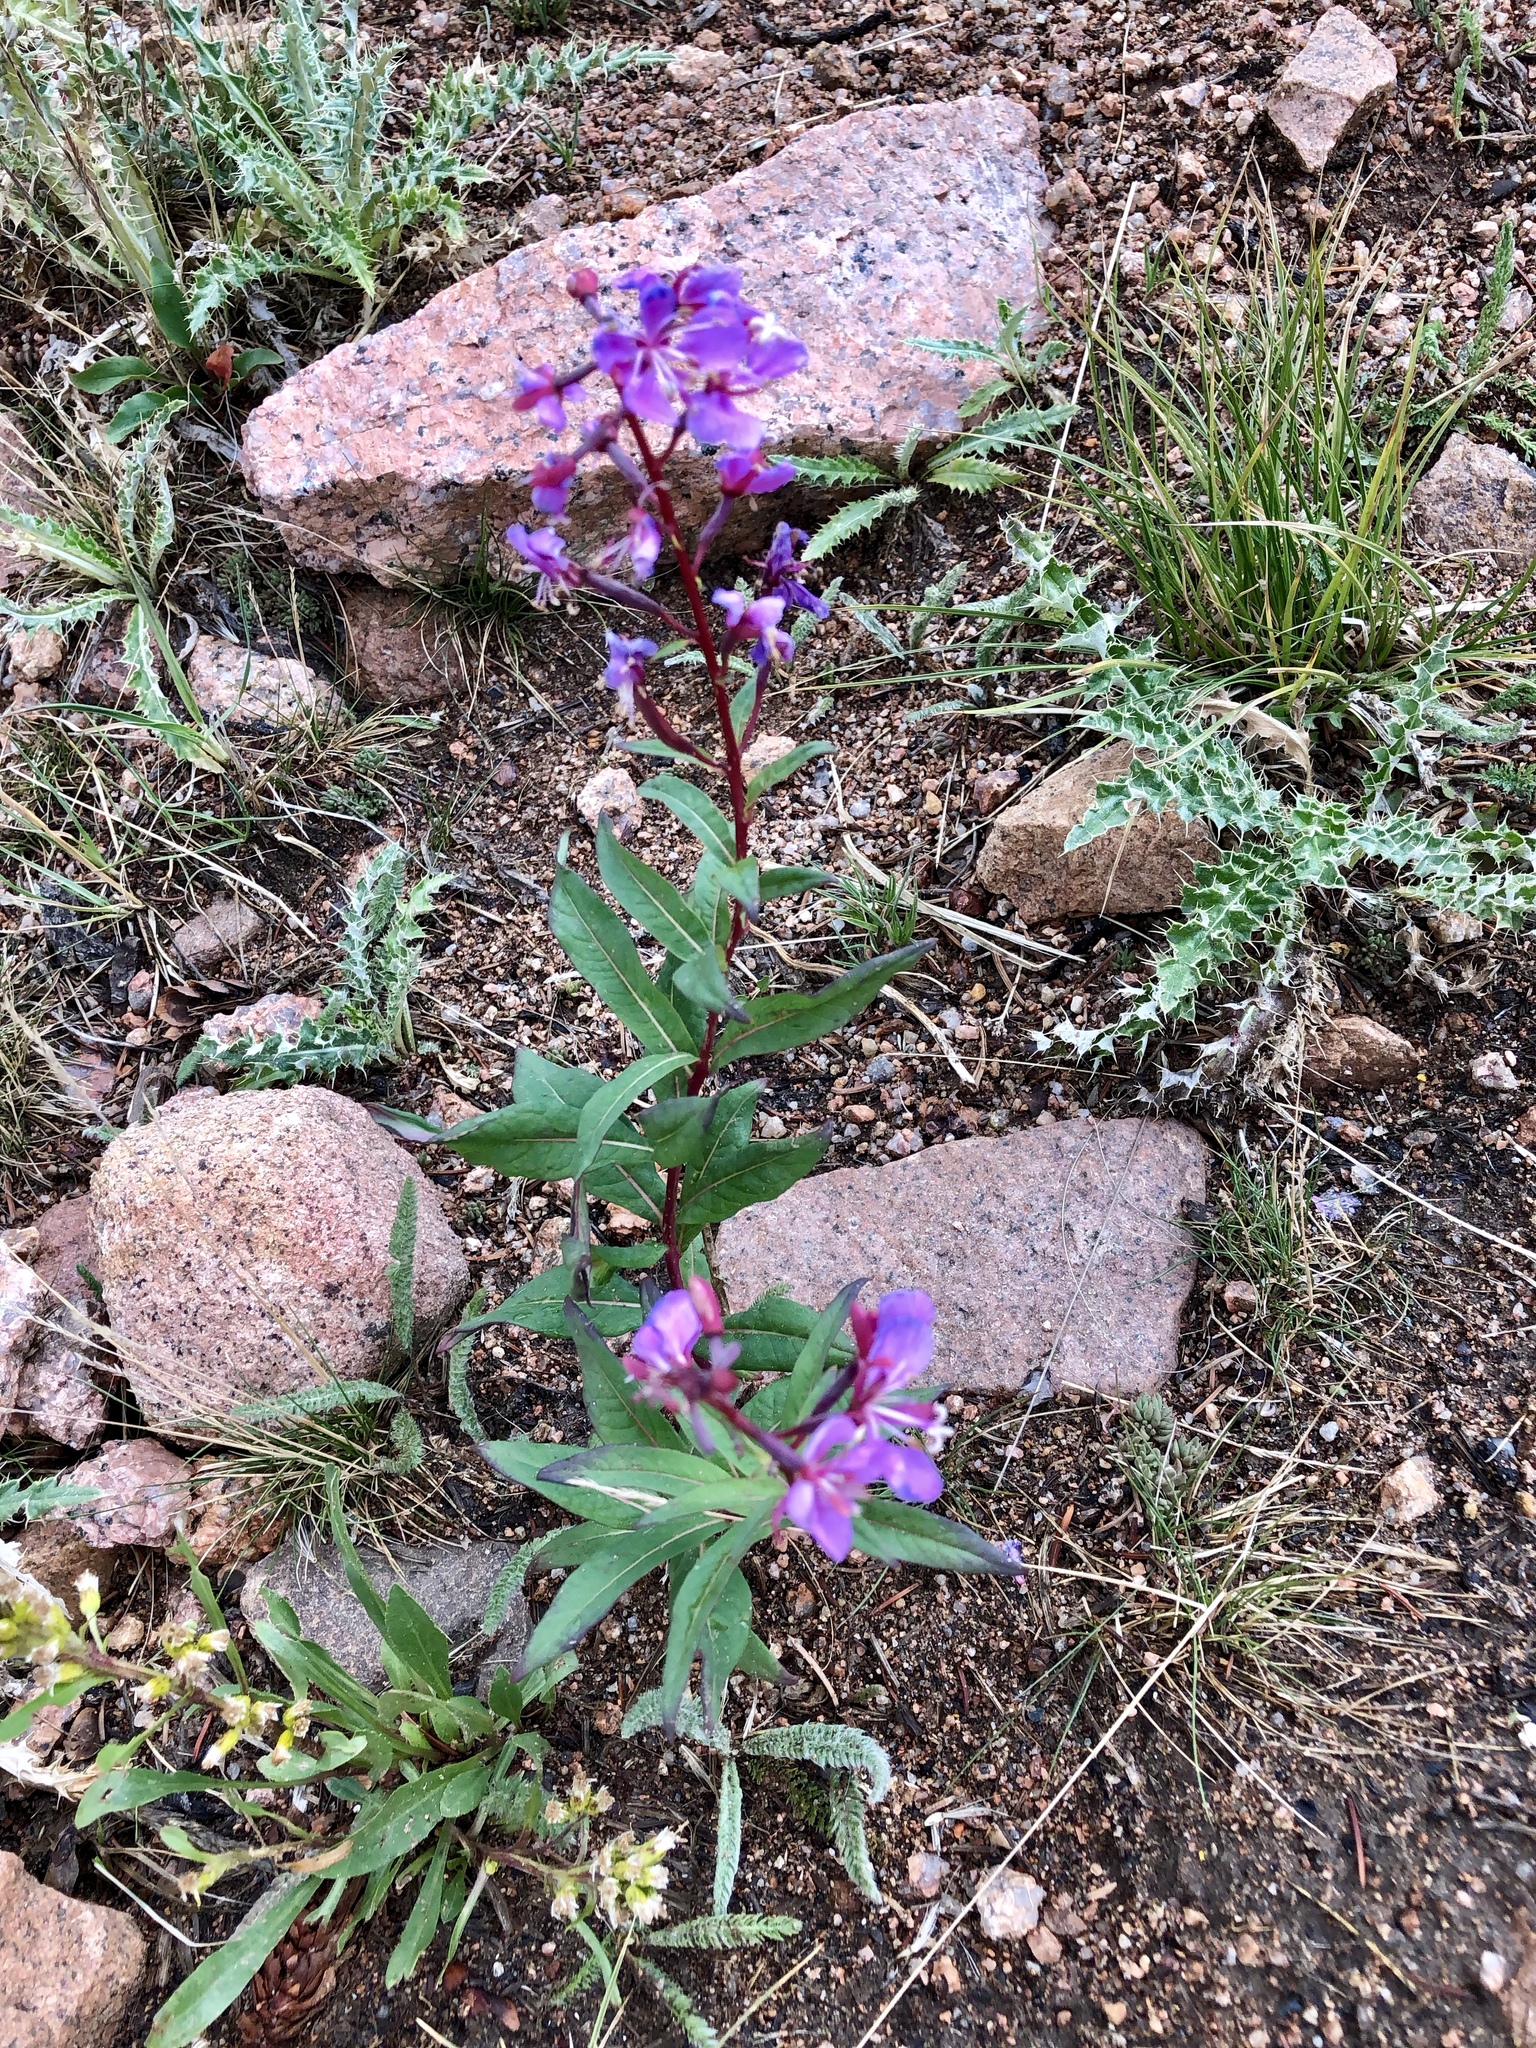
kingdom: Plantae
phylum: Tracheophyta
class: Magnoliopsida
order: Myrtales
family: Onagraceae
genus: Chamaenerion
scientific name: Chamaenerion angustifolium
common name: Fireweed
